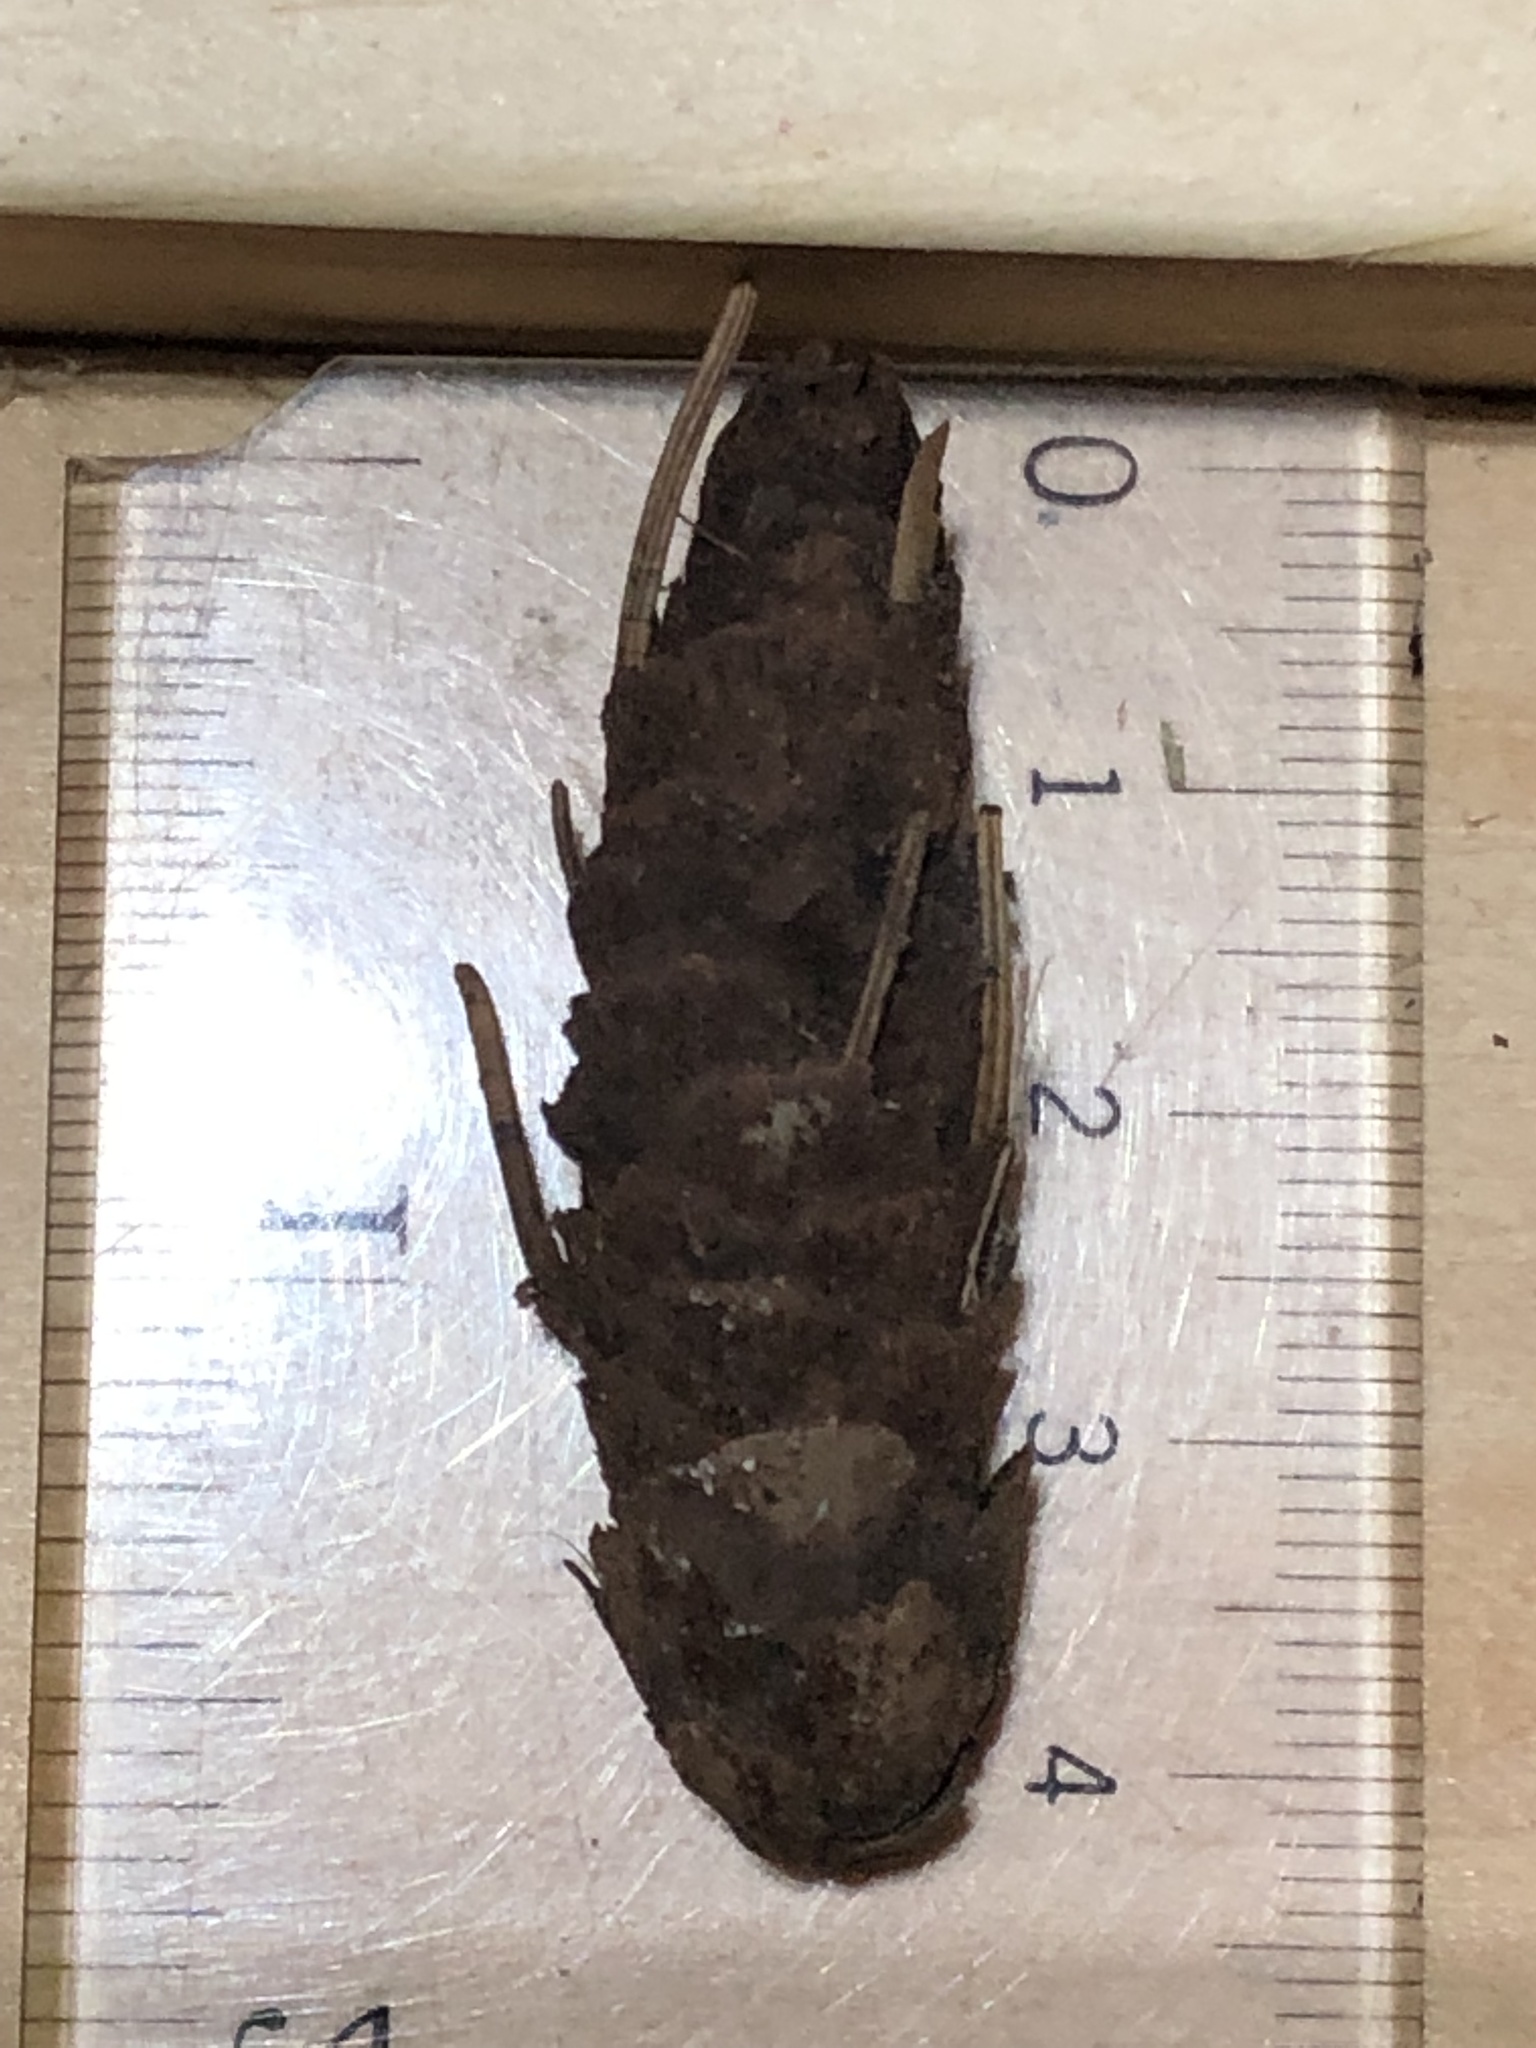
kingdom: Plantae
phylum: Tracheophyta
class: Pinopsida
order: Pinales
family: Pinaceae
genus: Picea
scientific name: Picea glauca
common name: White spruce
